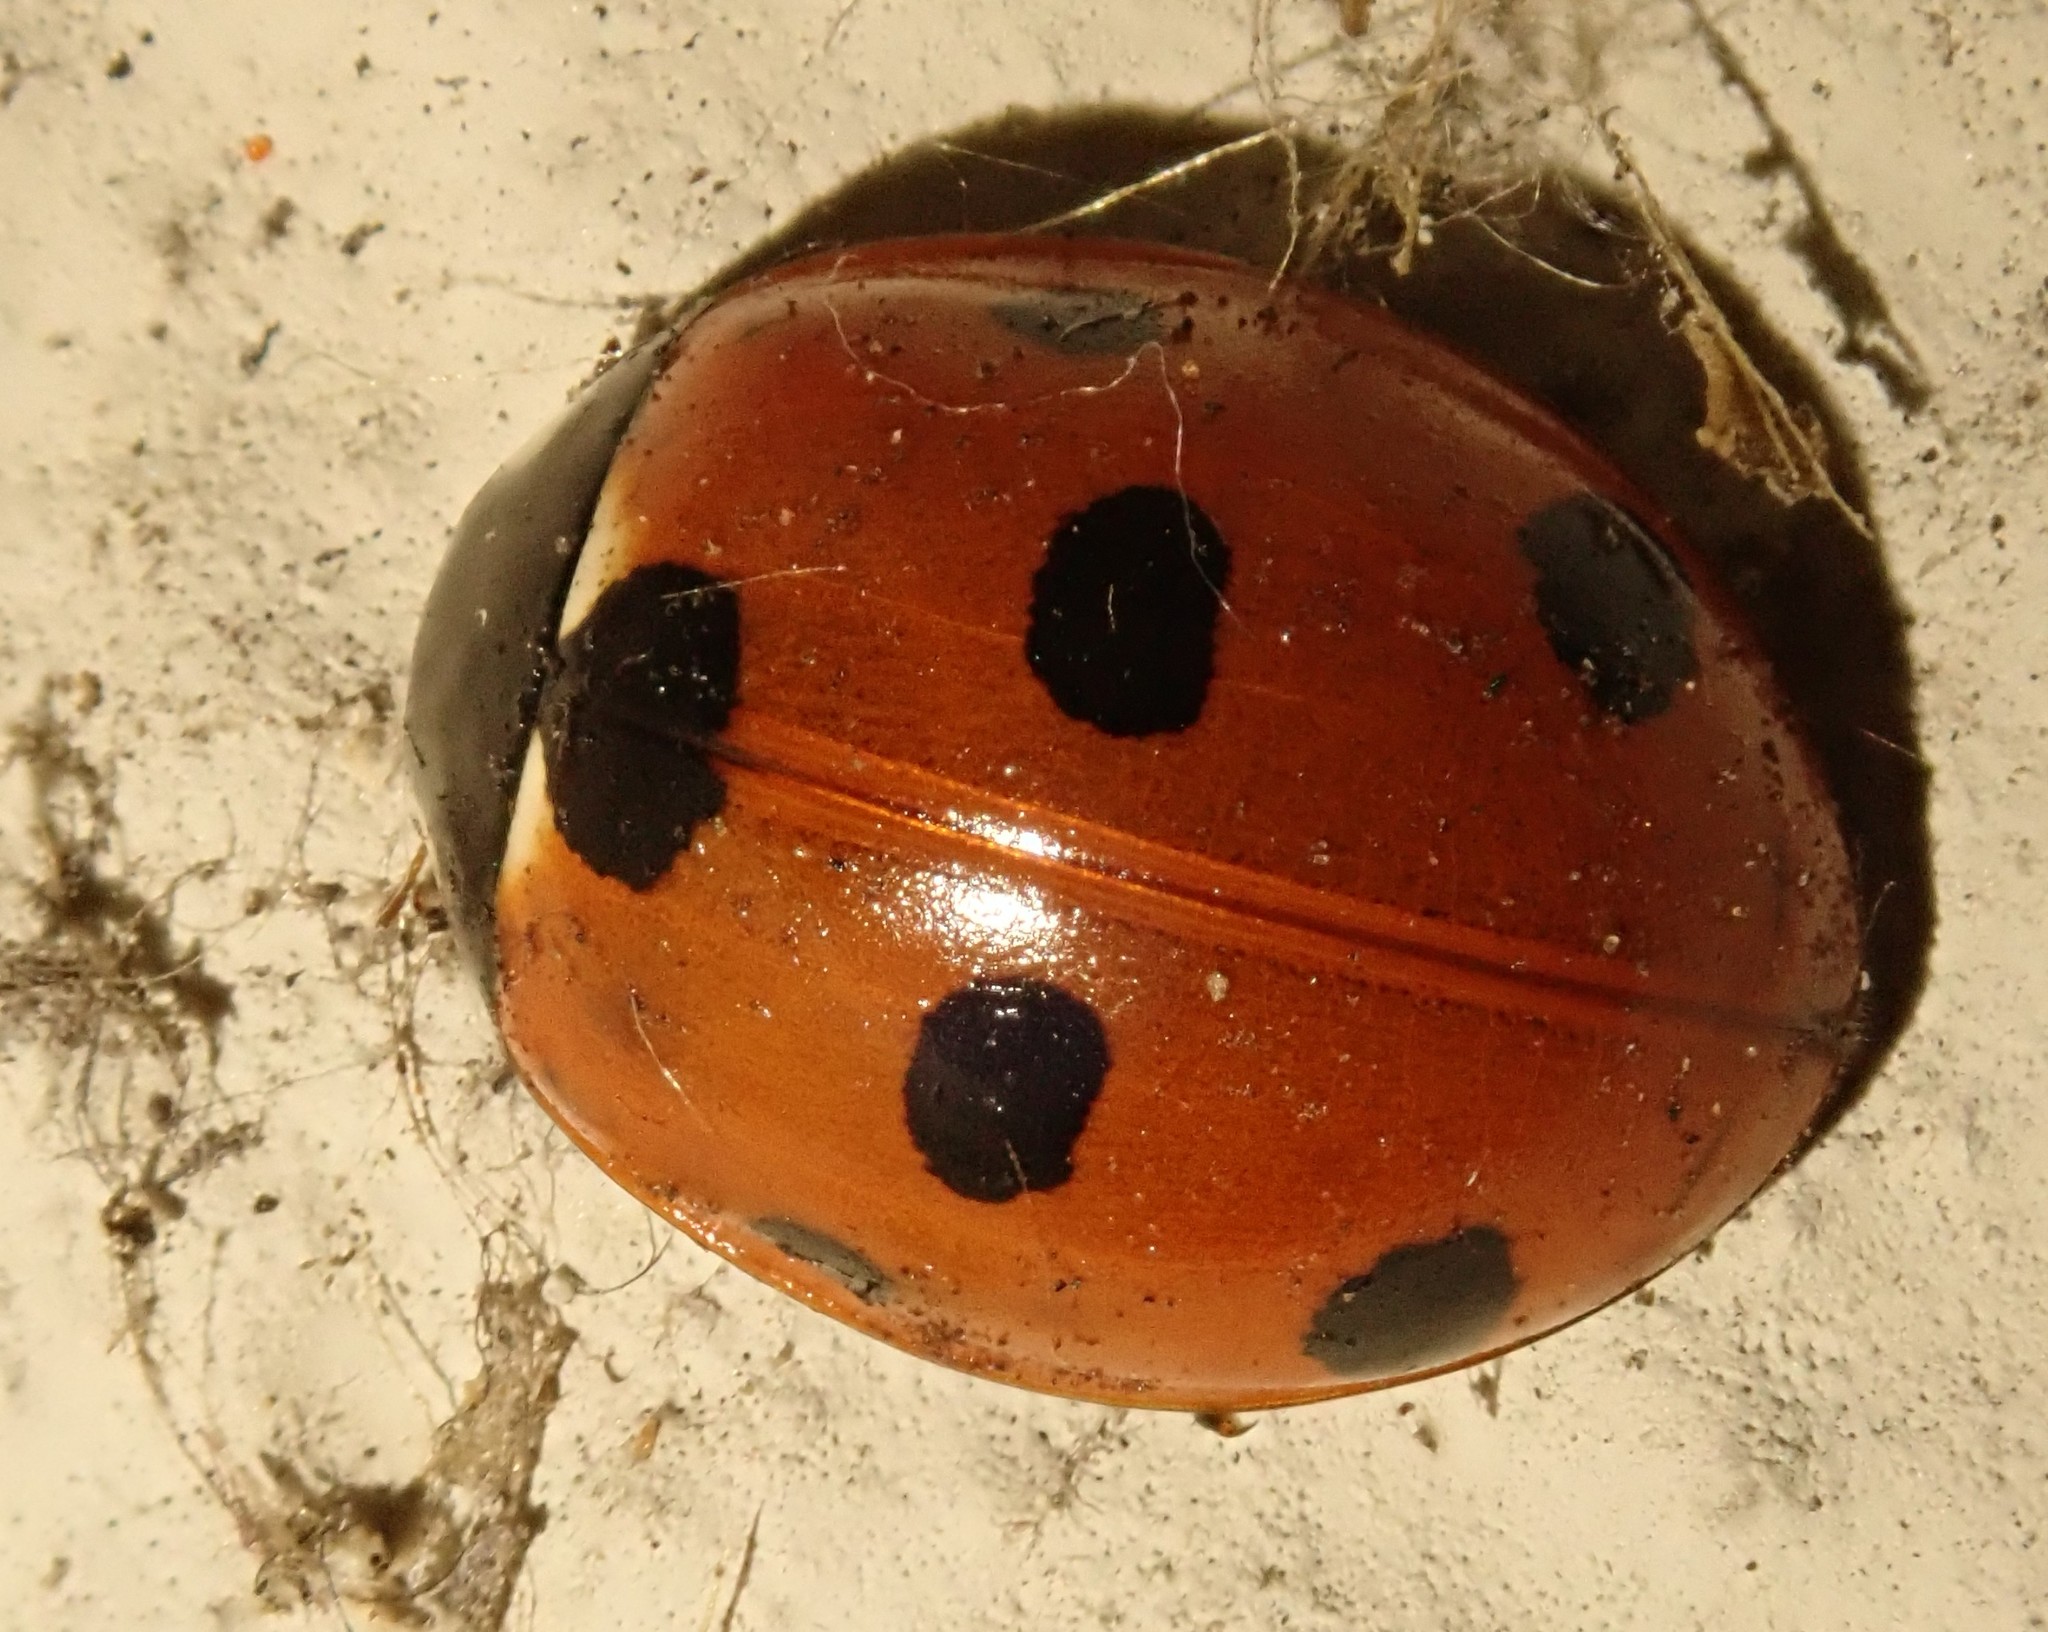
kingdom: Animalia
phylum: Arthropoda
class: Insecta
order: Coleoptera
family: Coccinellidae
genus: Coccinella
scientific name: Coccinella septempunctata
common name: Sevenspotted lady beetle
